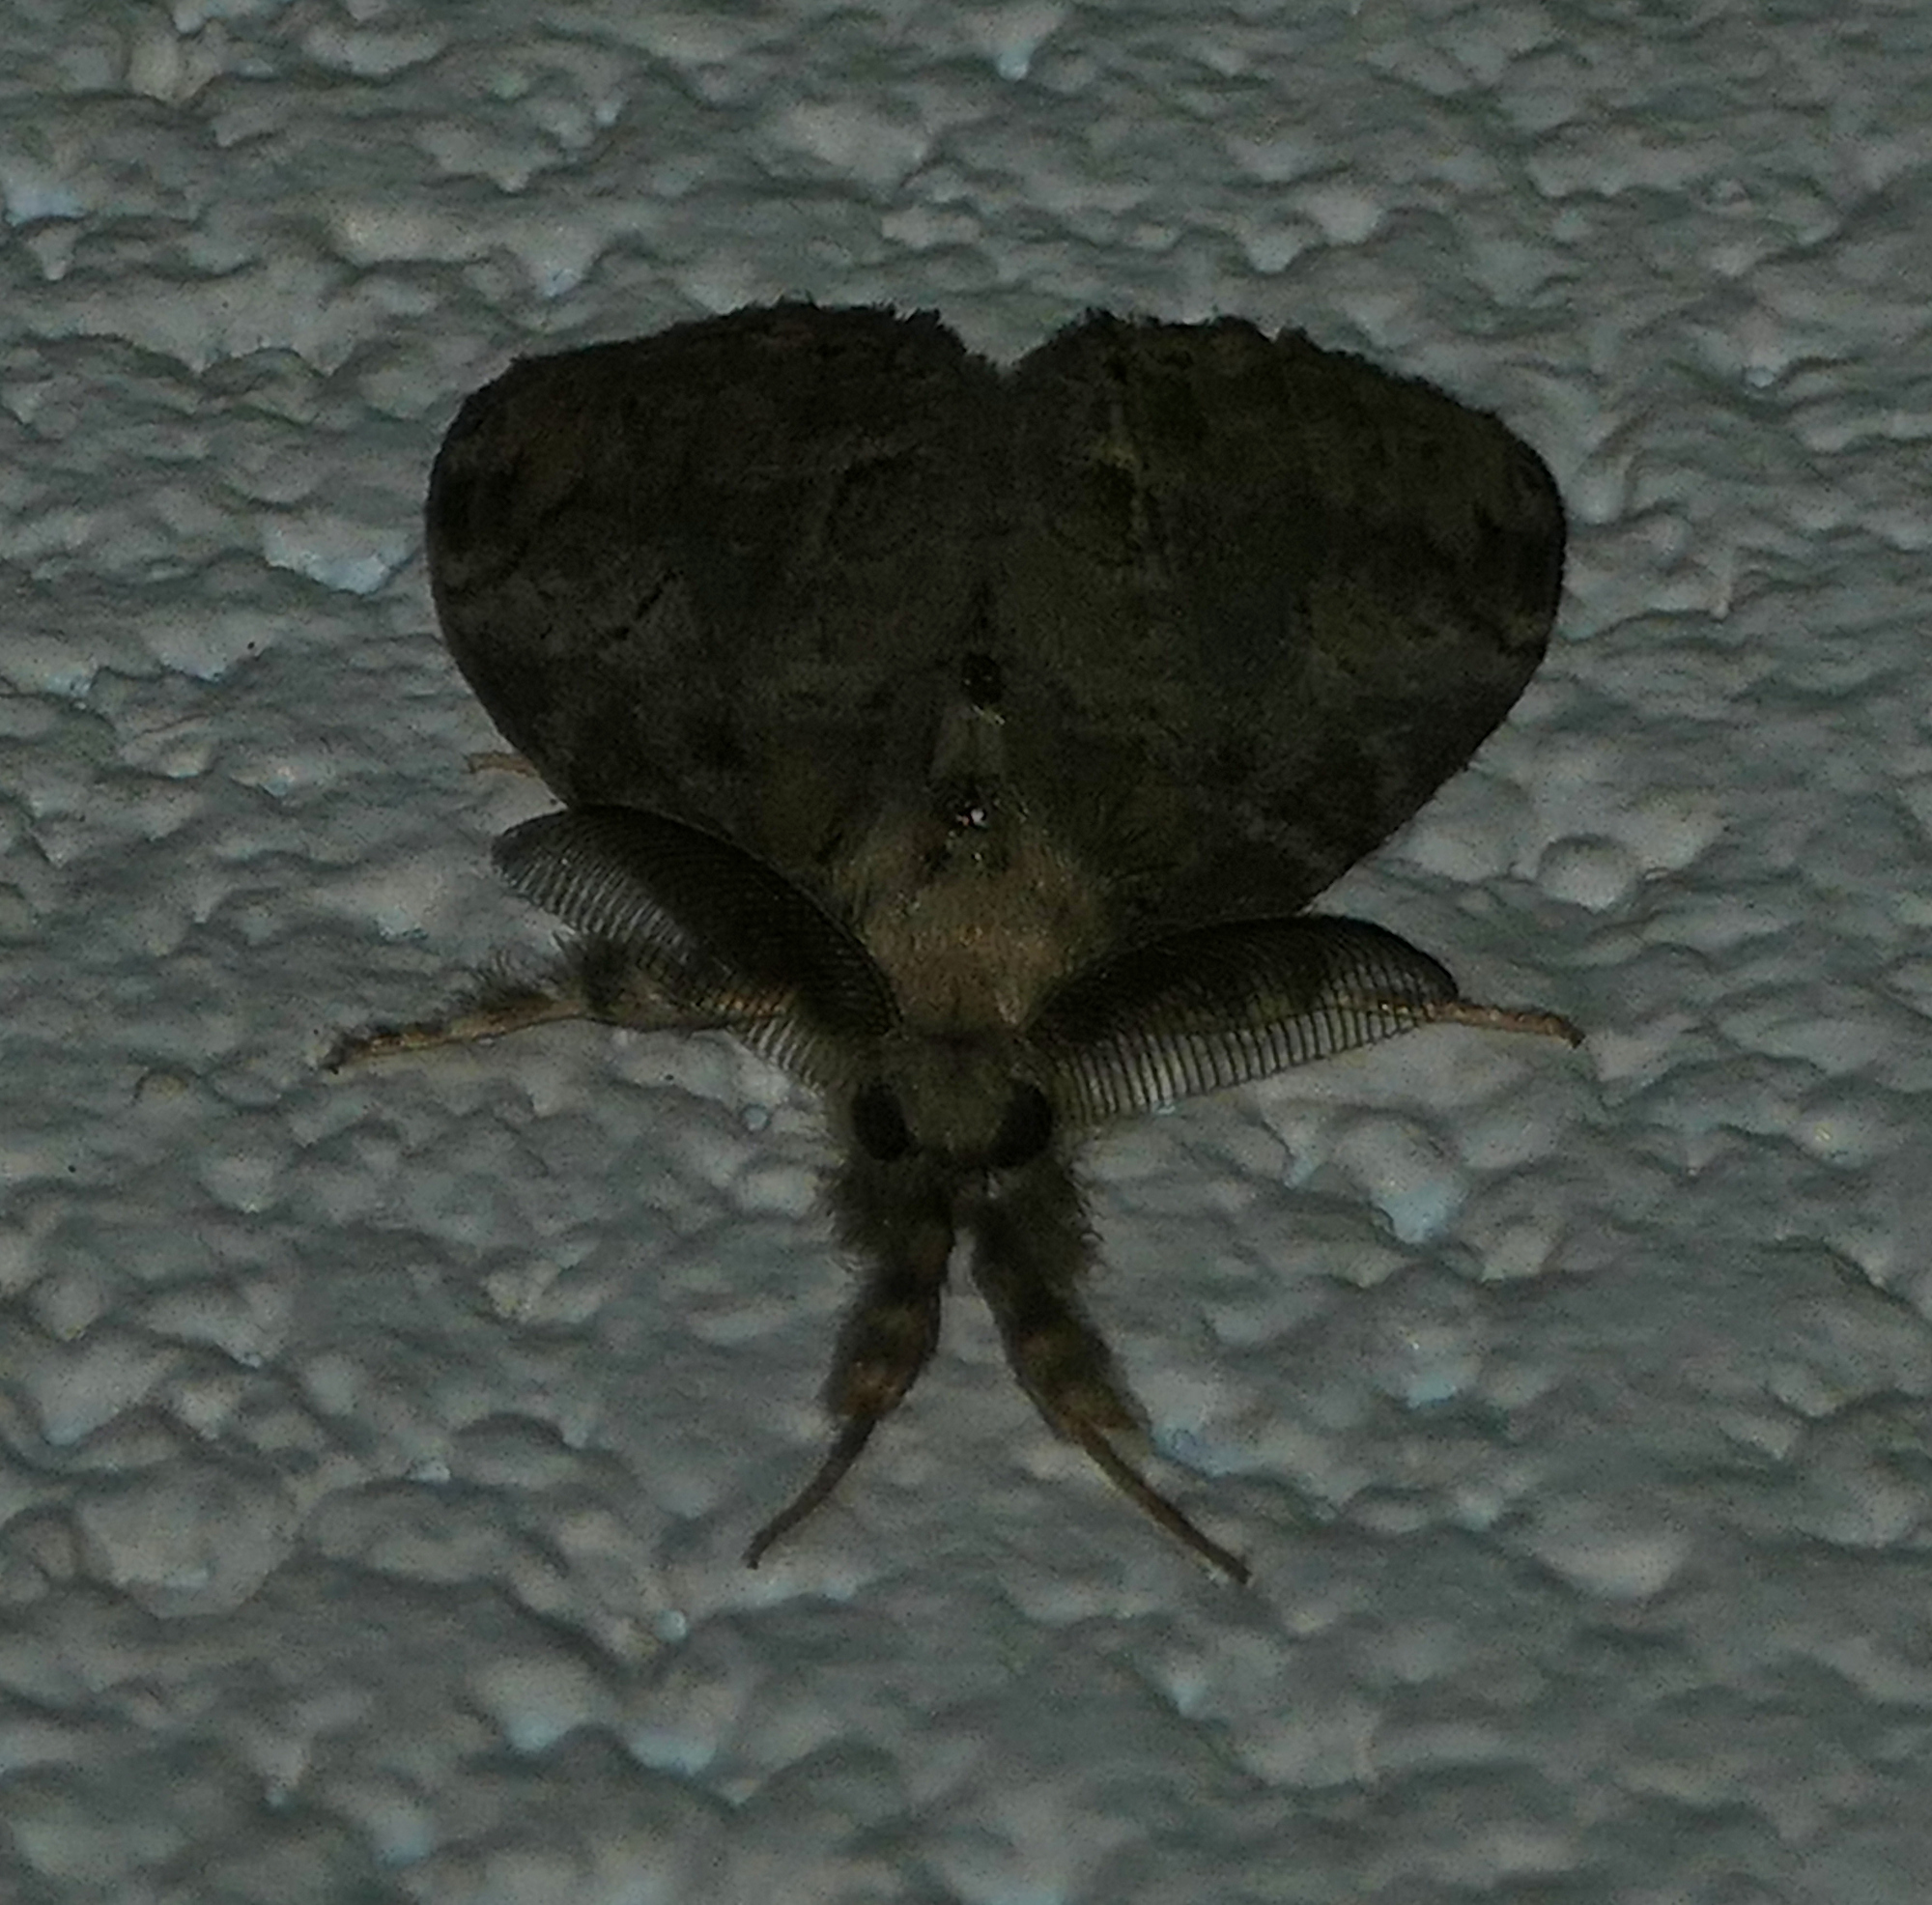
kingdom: Animalia
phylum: Arthropoda
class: Insecta
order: Lepidoptera
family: Erebidae
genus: Orgyia
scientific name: Orgyia leucostigma
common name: White-marked tussock moth
